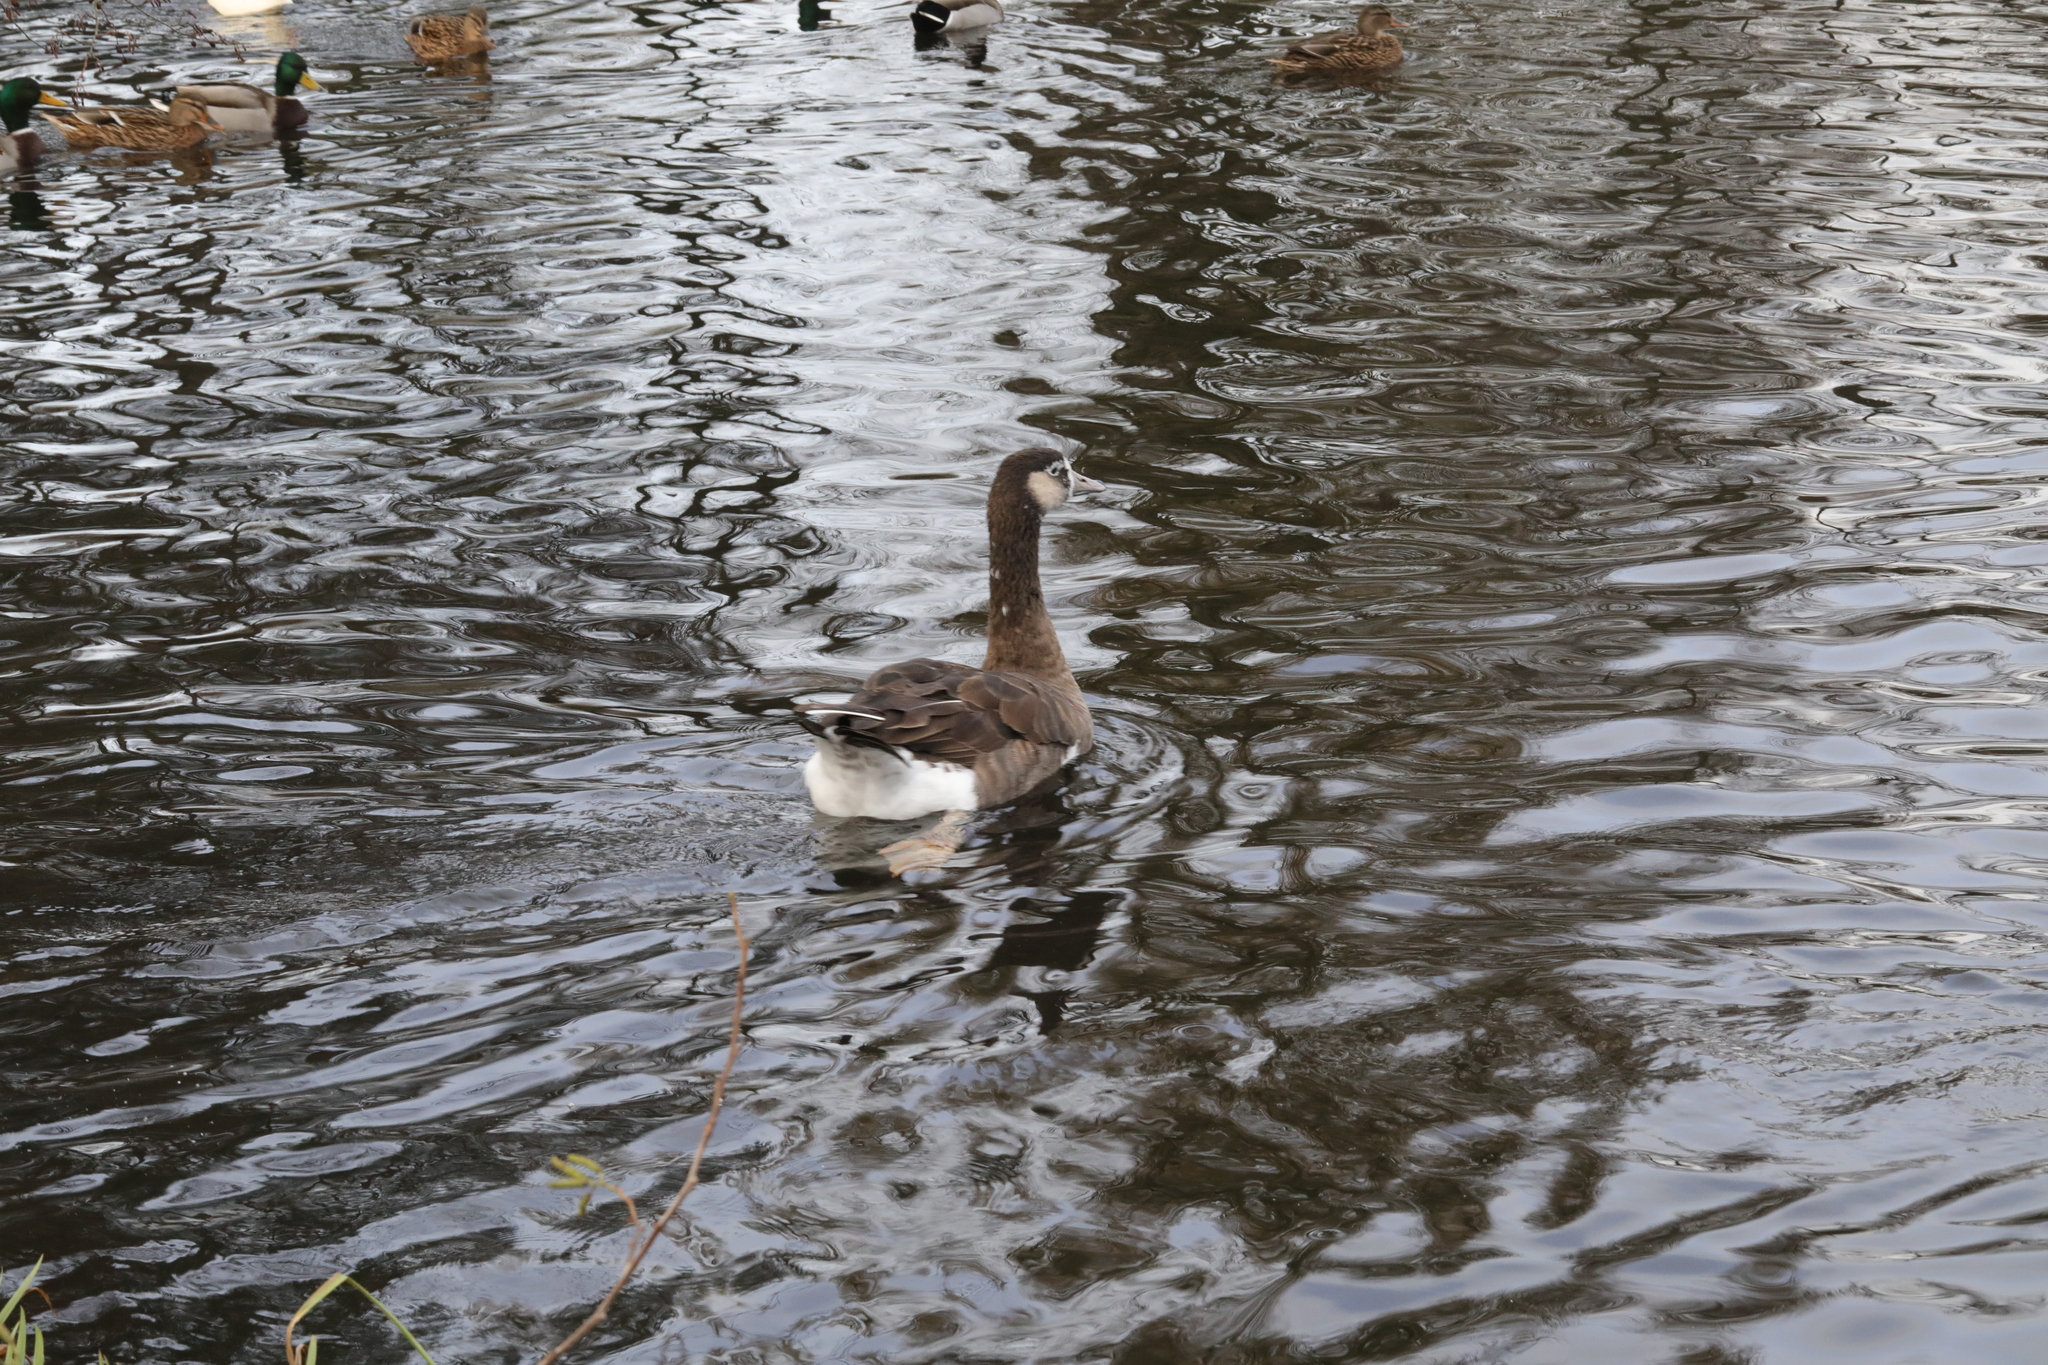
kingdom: Animalia
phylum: Chordata
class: Aves
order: Anseriformes
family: Anatidae
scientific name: Anatidae
